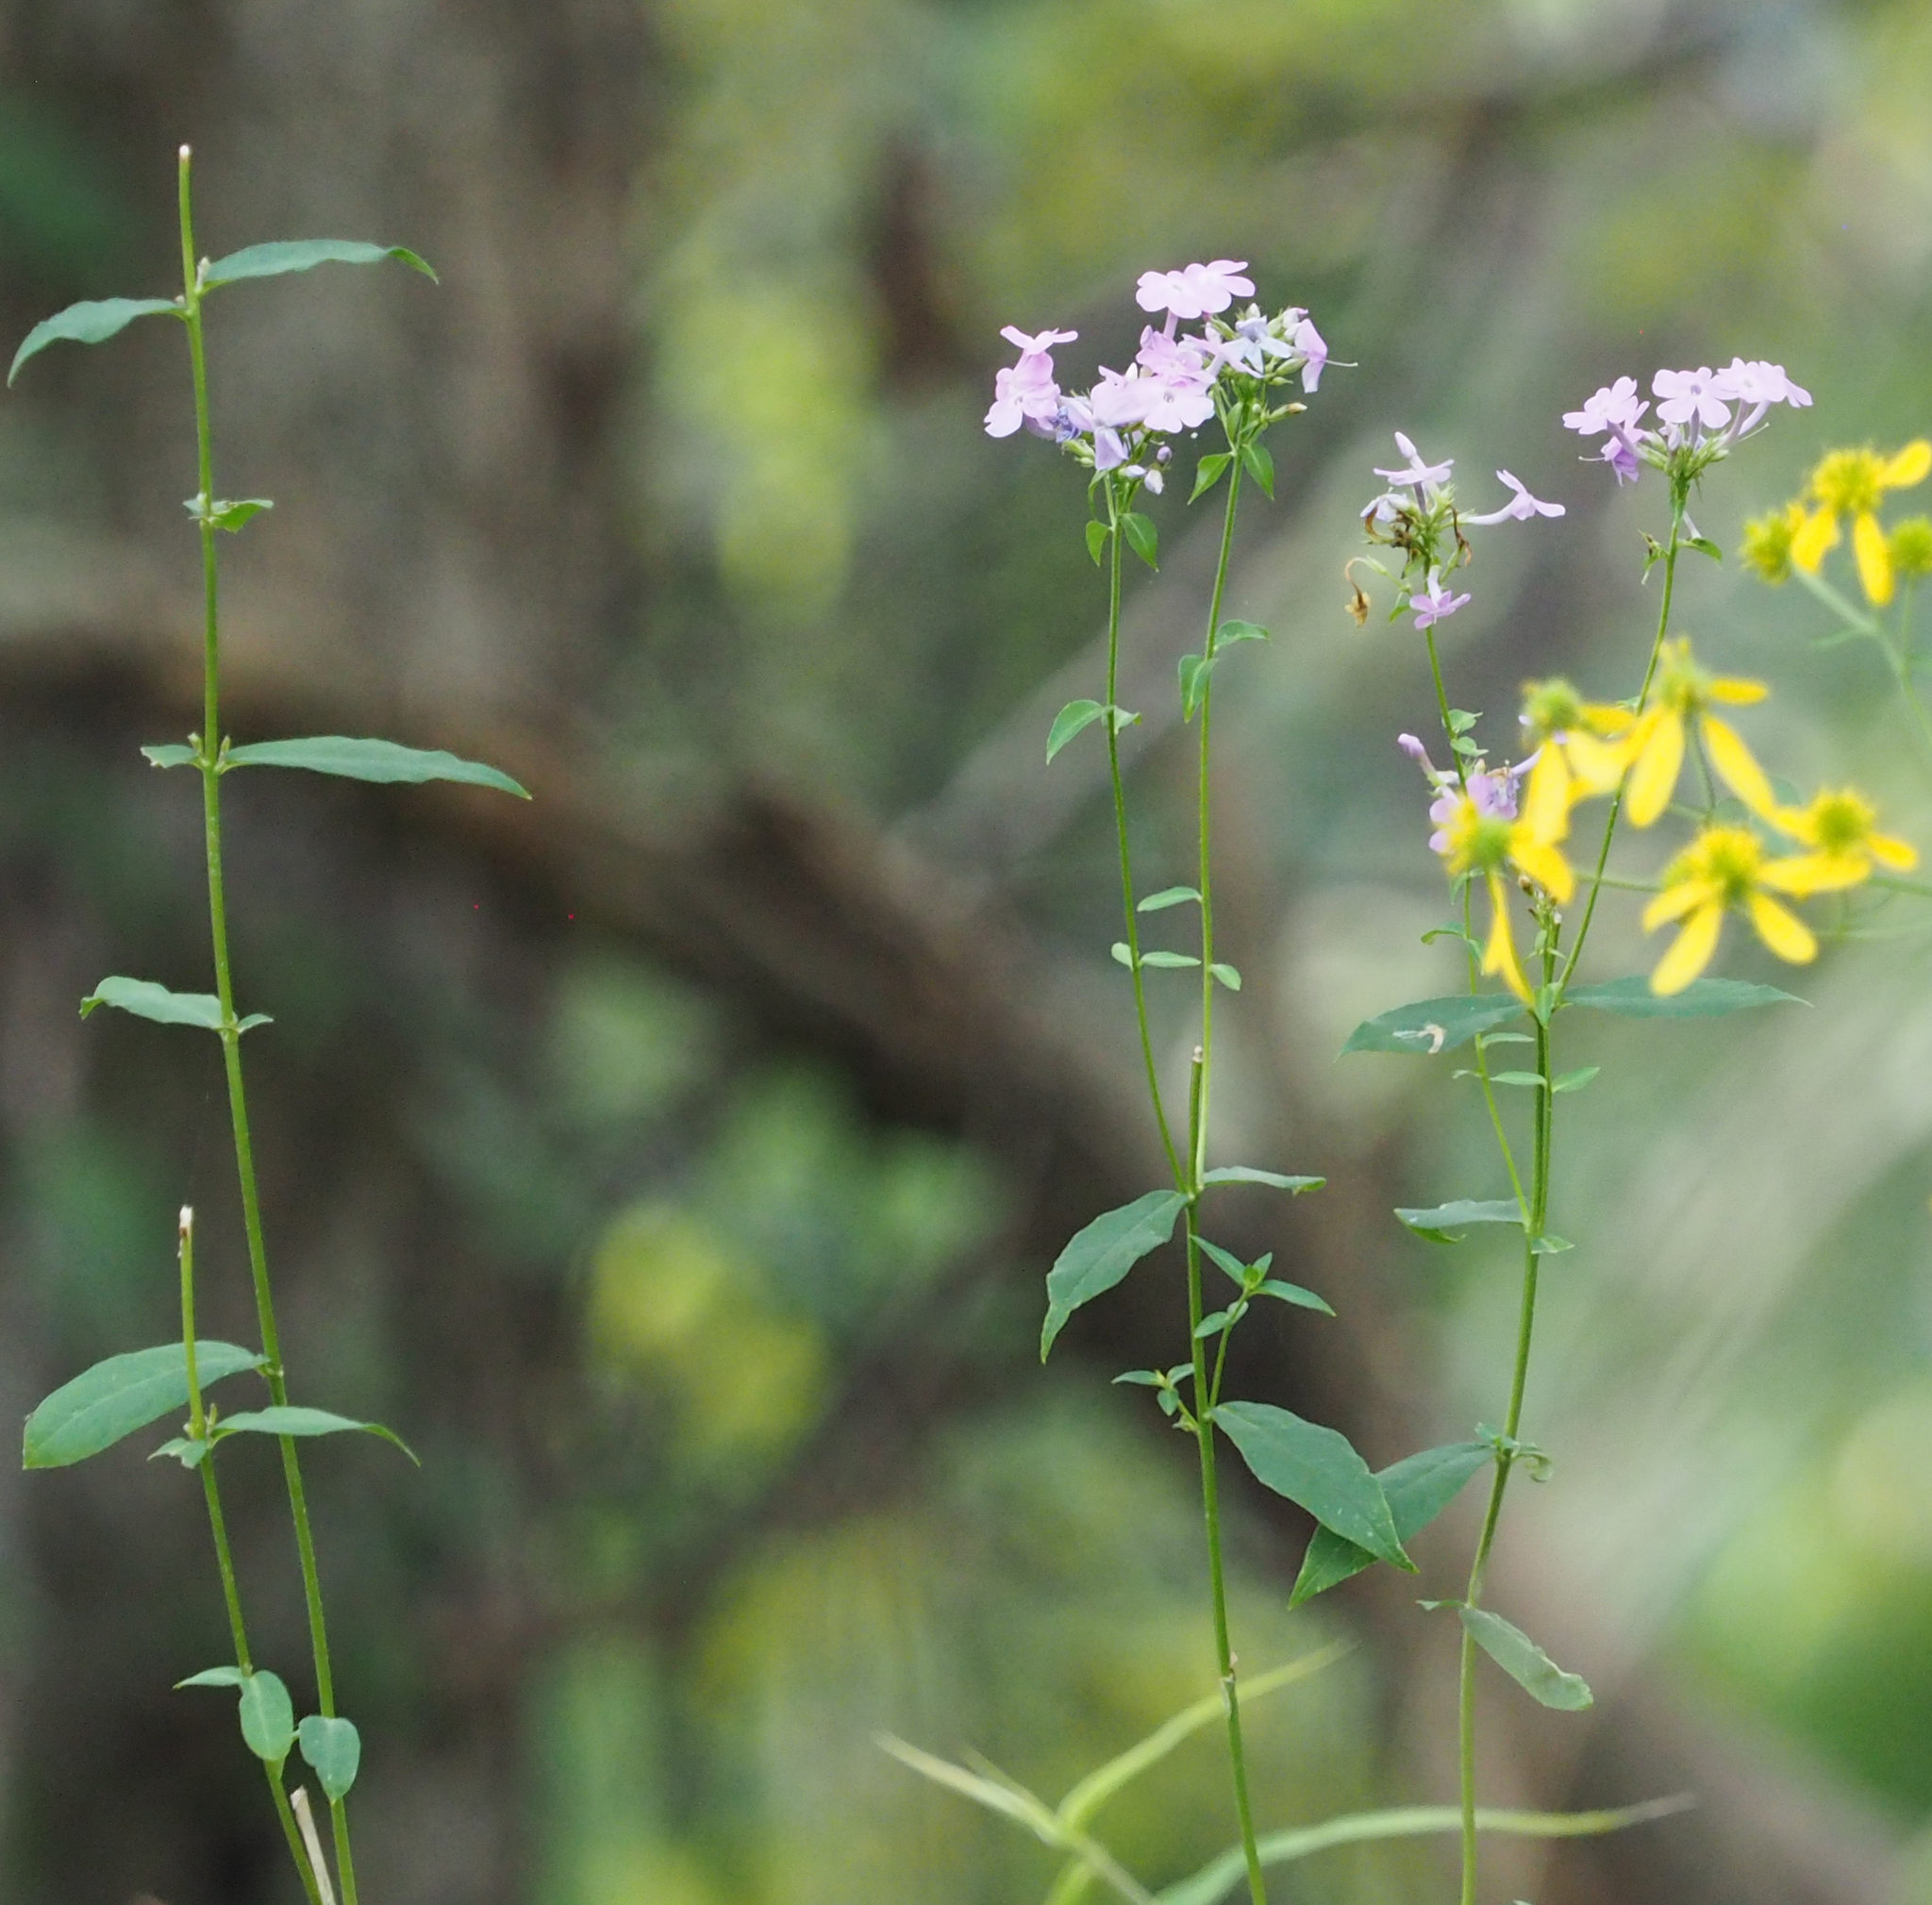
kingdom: Plantae
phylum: Tracheophyta
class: Magnoliopsida
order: Ericales
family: Polemoniaceae
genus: Phlox
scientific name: Phlox paniculata
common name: Fall phlox
